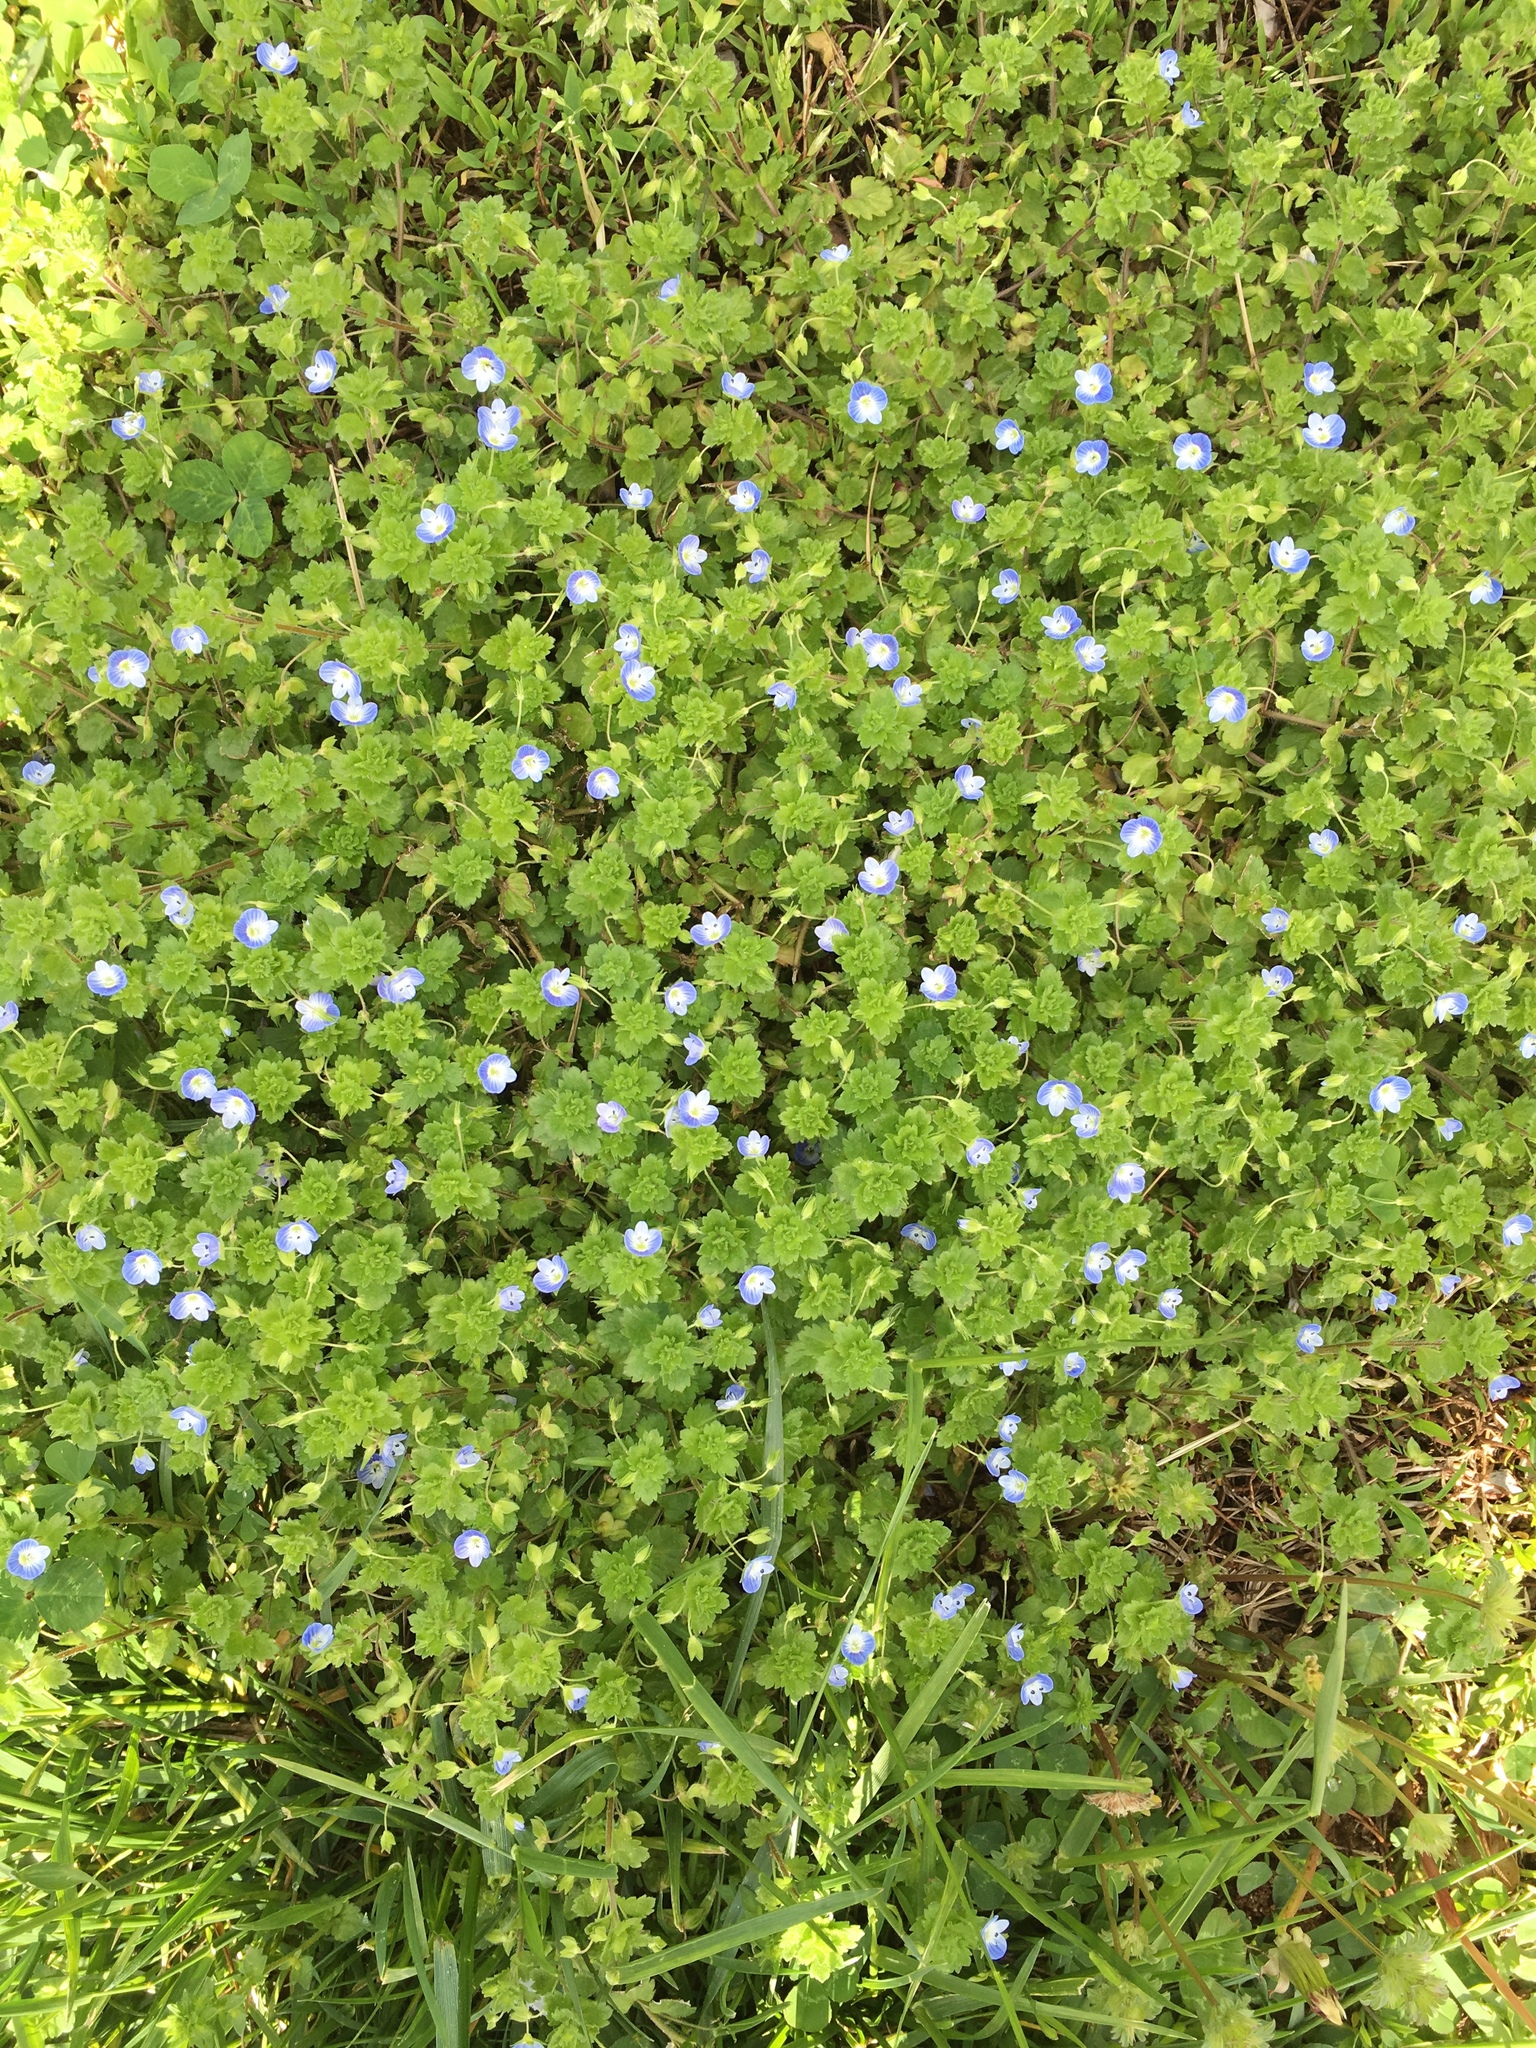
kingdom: Plantae
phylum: Tracheophyta
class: Magnoliopsida
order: Lamiales
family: Plantaginaceae
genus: Veronica
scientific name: Veronica persica
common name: Common field-speedwell
